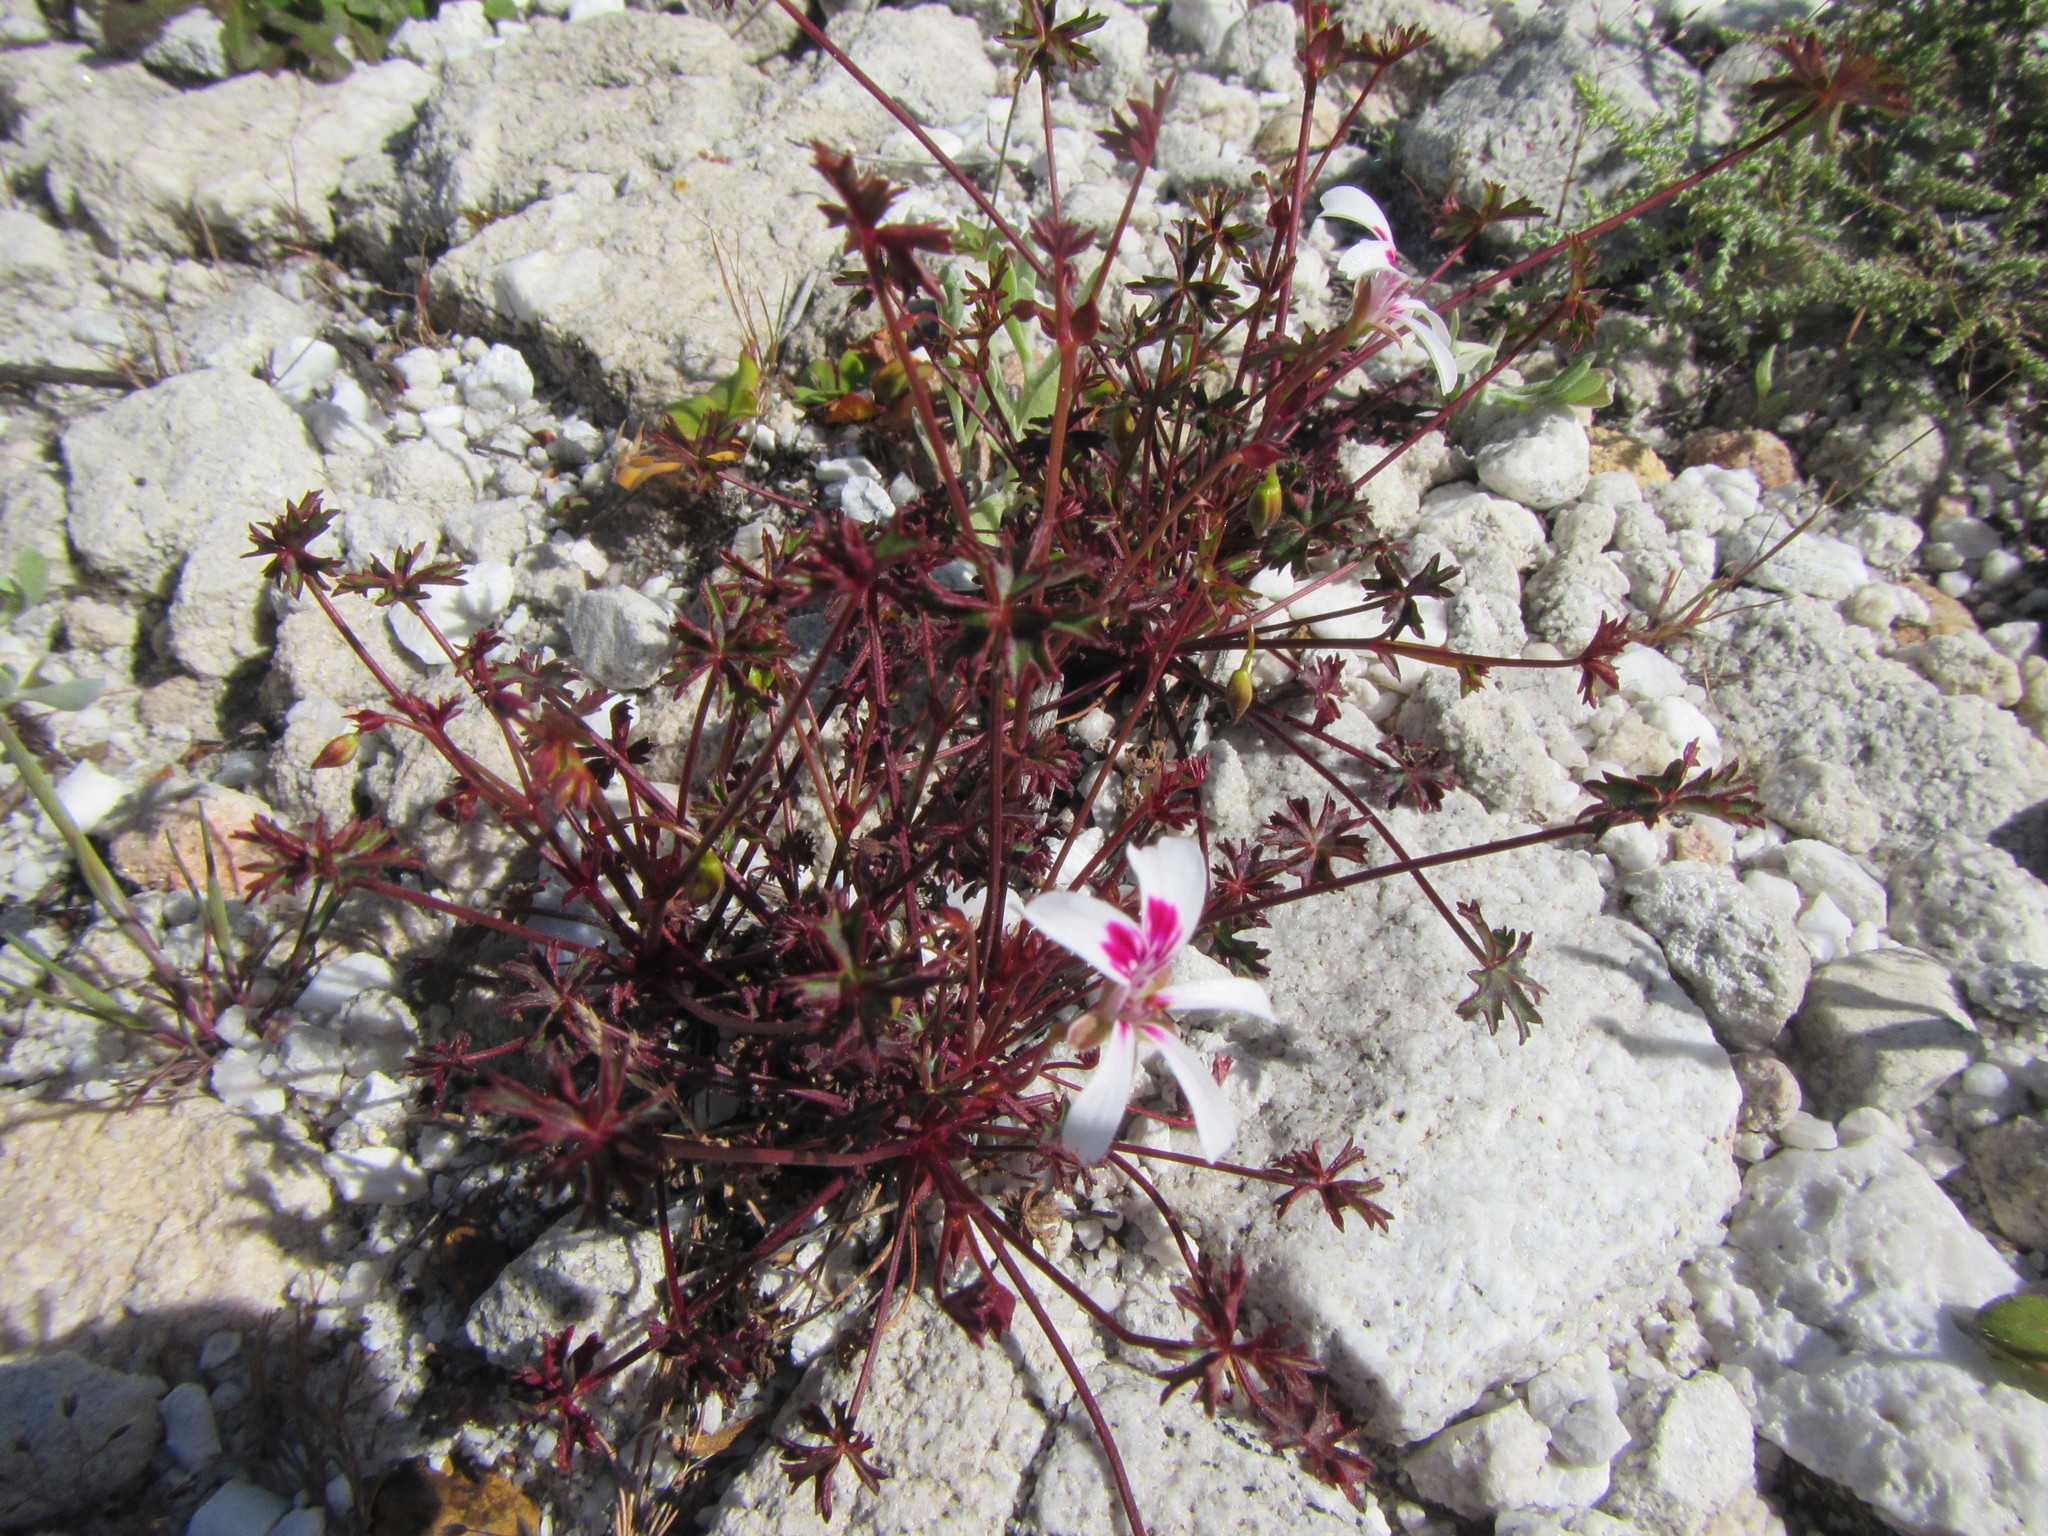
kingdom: Plantae
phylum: Tracheophyta
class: Magnoliopsida
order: Geraniales
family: Geraniaceae
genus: Pelargonium
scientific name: Pelargonium patulum
